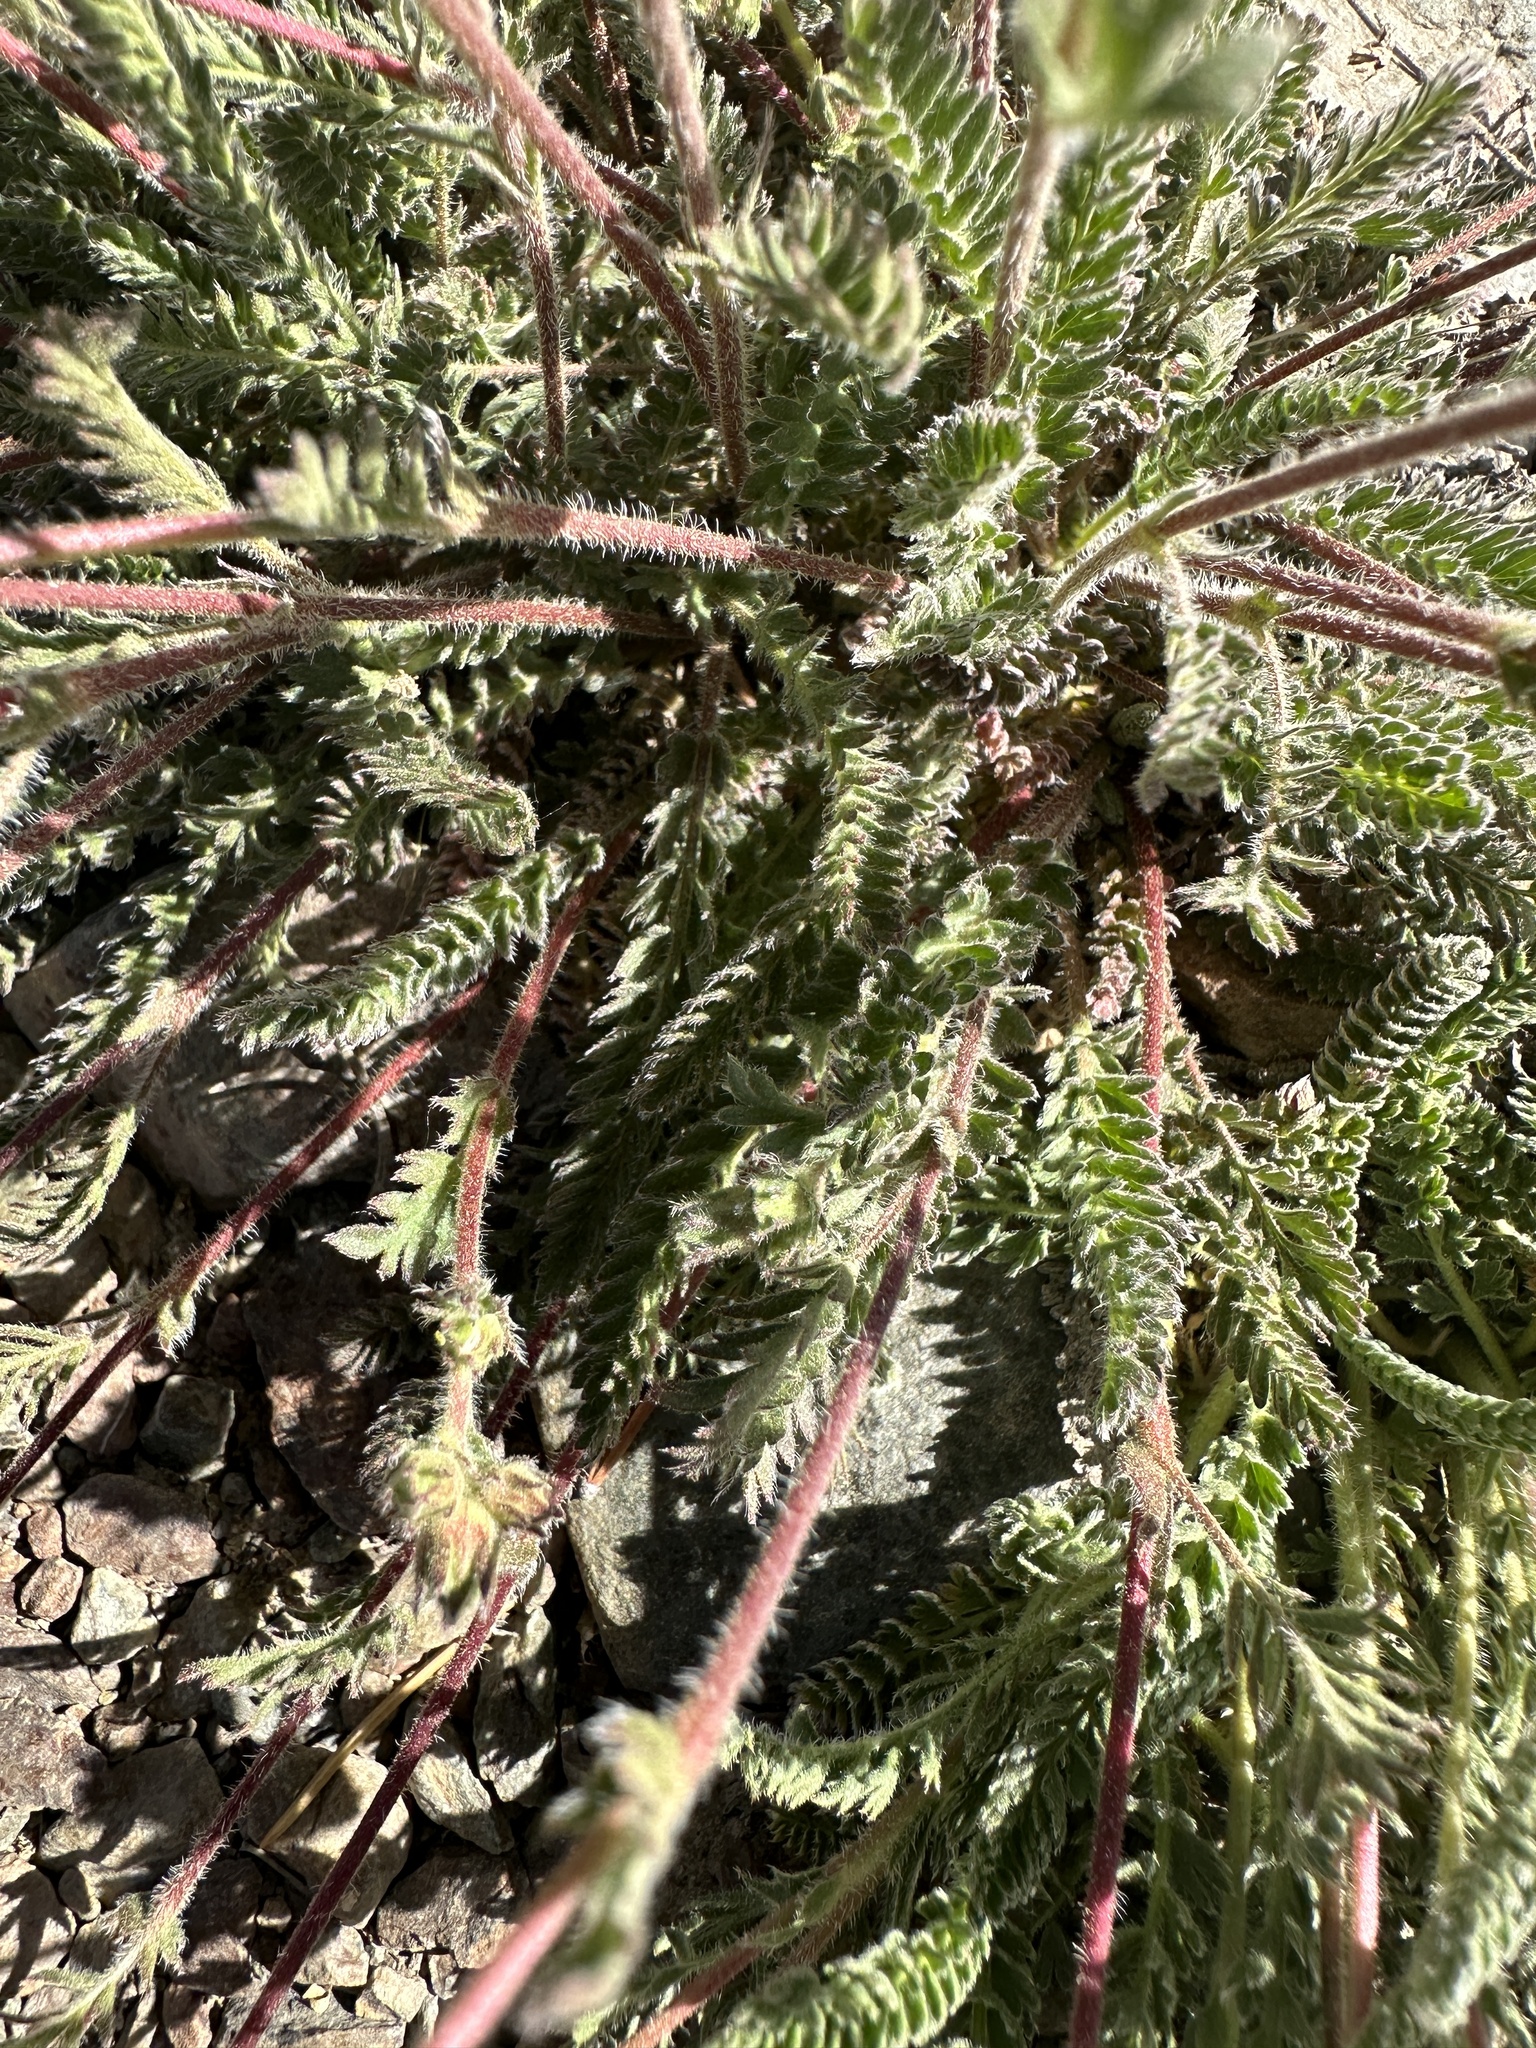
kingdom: Plantae
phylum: Tracheophyta
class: Magnoliopsida
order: Rosales
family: Rosaceae
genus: Potentilla
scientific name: Potentilla hispidula
